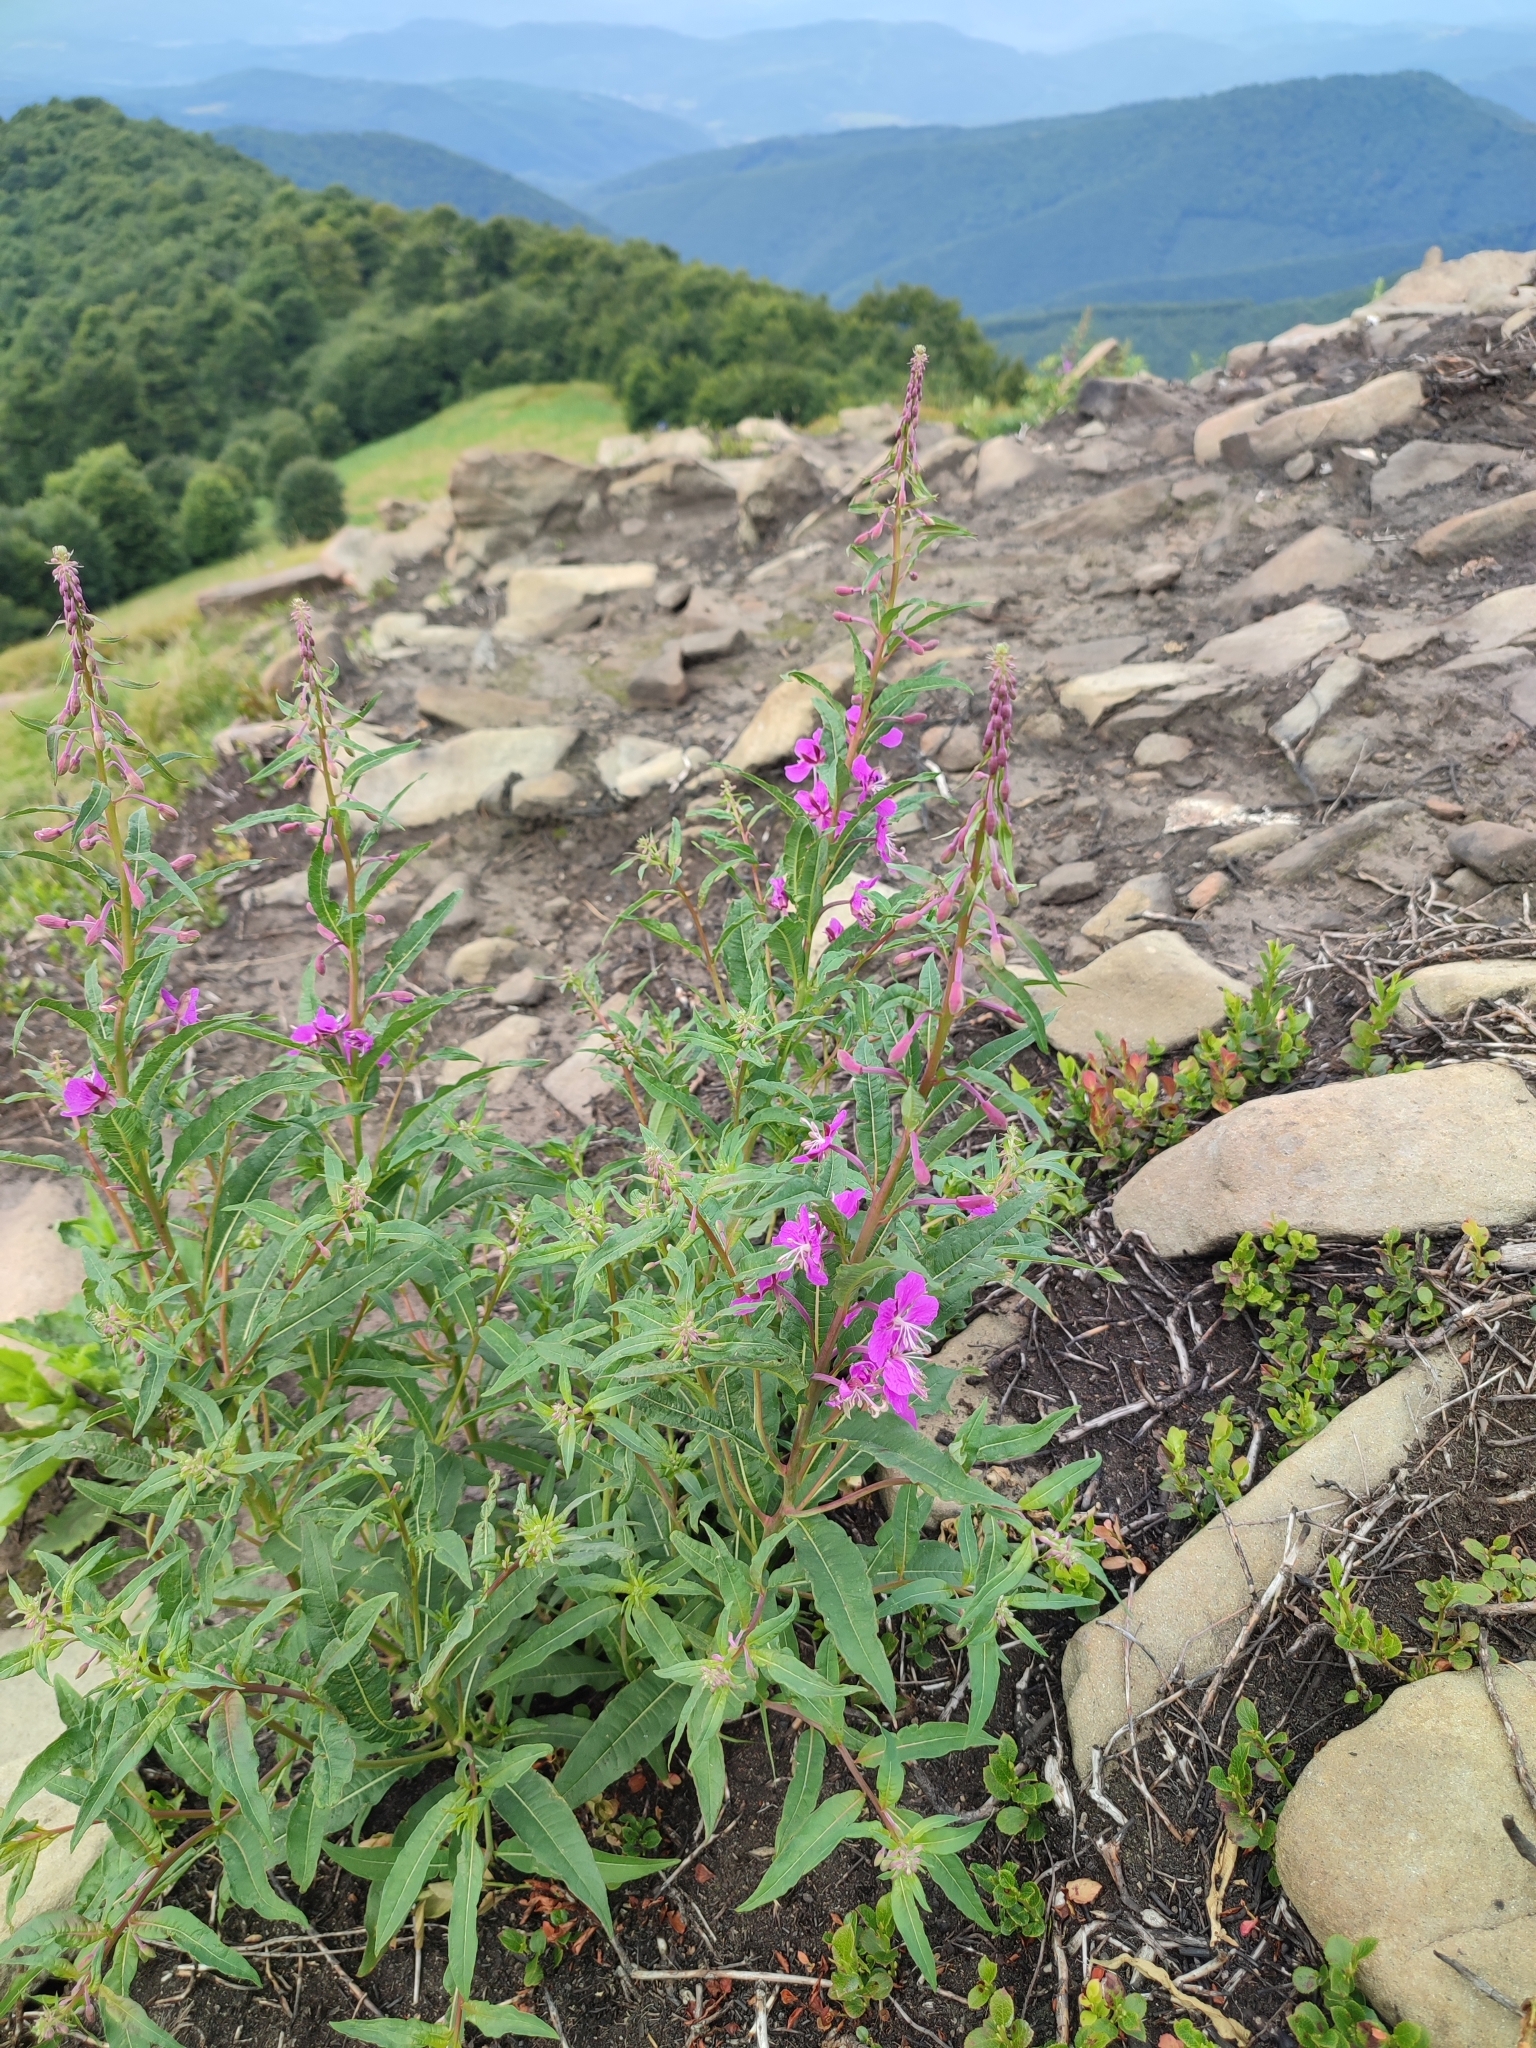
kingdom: Plantae
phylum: Tracheophyta
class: Magnoliopsida
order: Myrtales
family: Onagraceae
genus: Chamaenerion
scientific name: Chamaenerion angustifolium
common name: Fireweed
